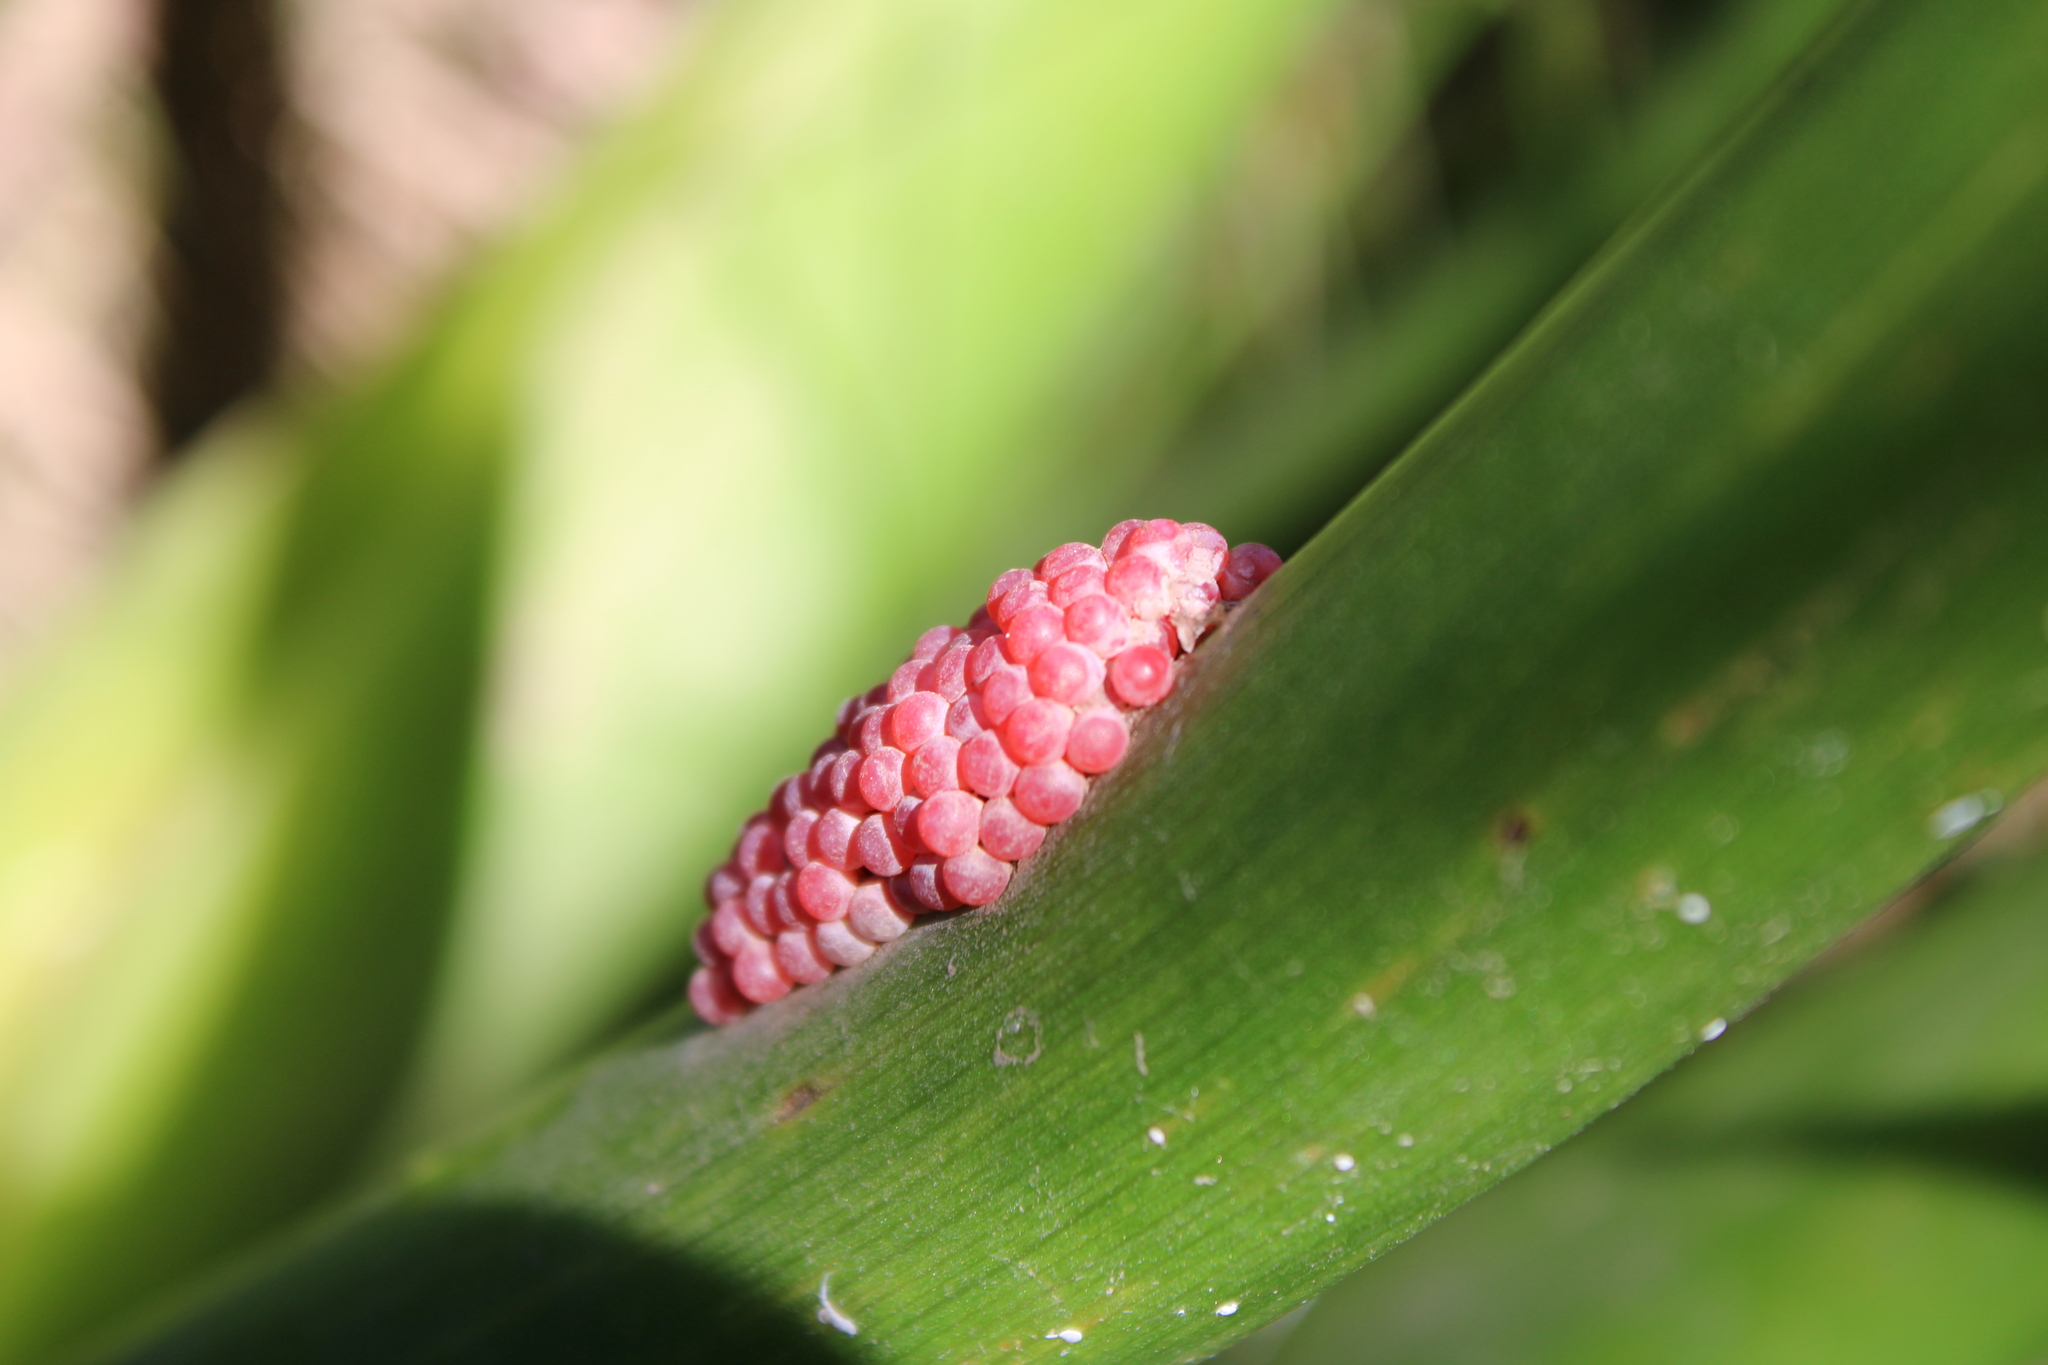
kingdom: Animalia
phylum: Mollusca
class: Gastropoda
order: Architaenioglossa
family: Ampullariidae
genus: Pomacea
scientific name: Pomacea canaliculata
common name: Channeled applesnail
